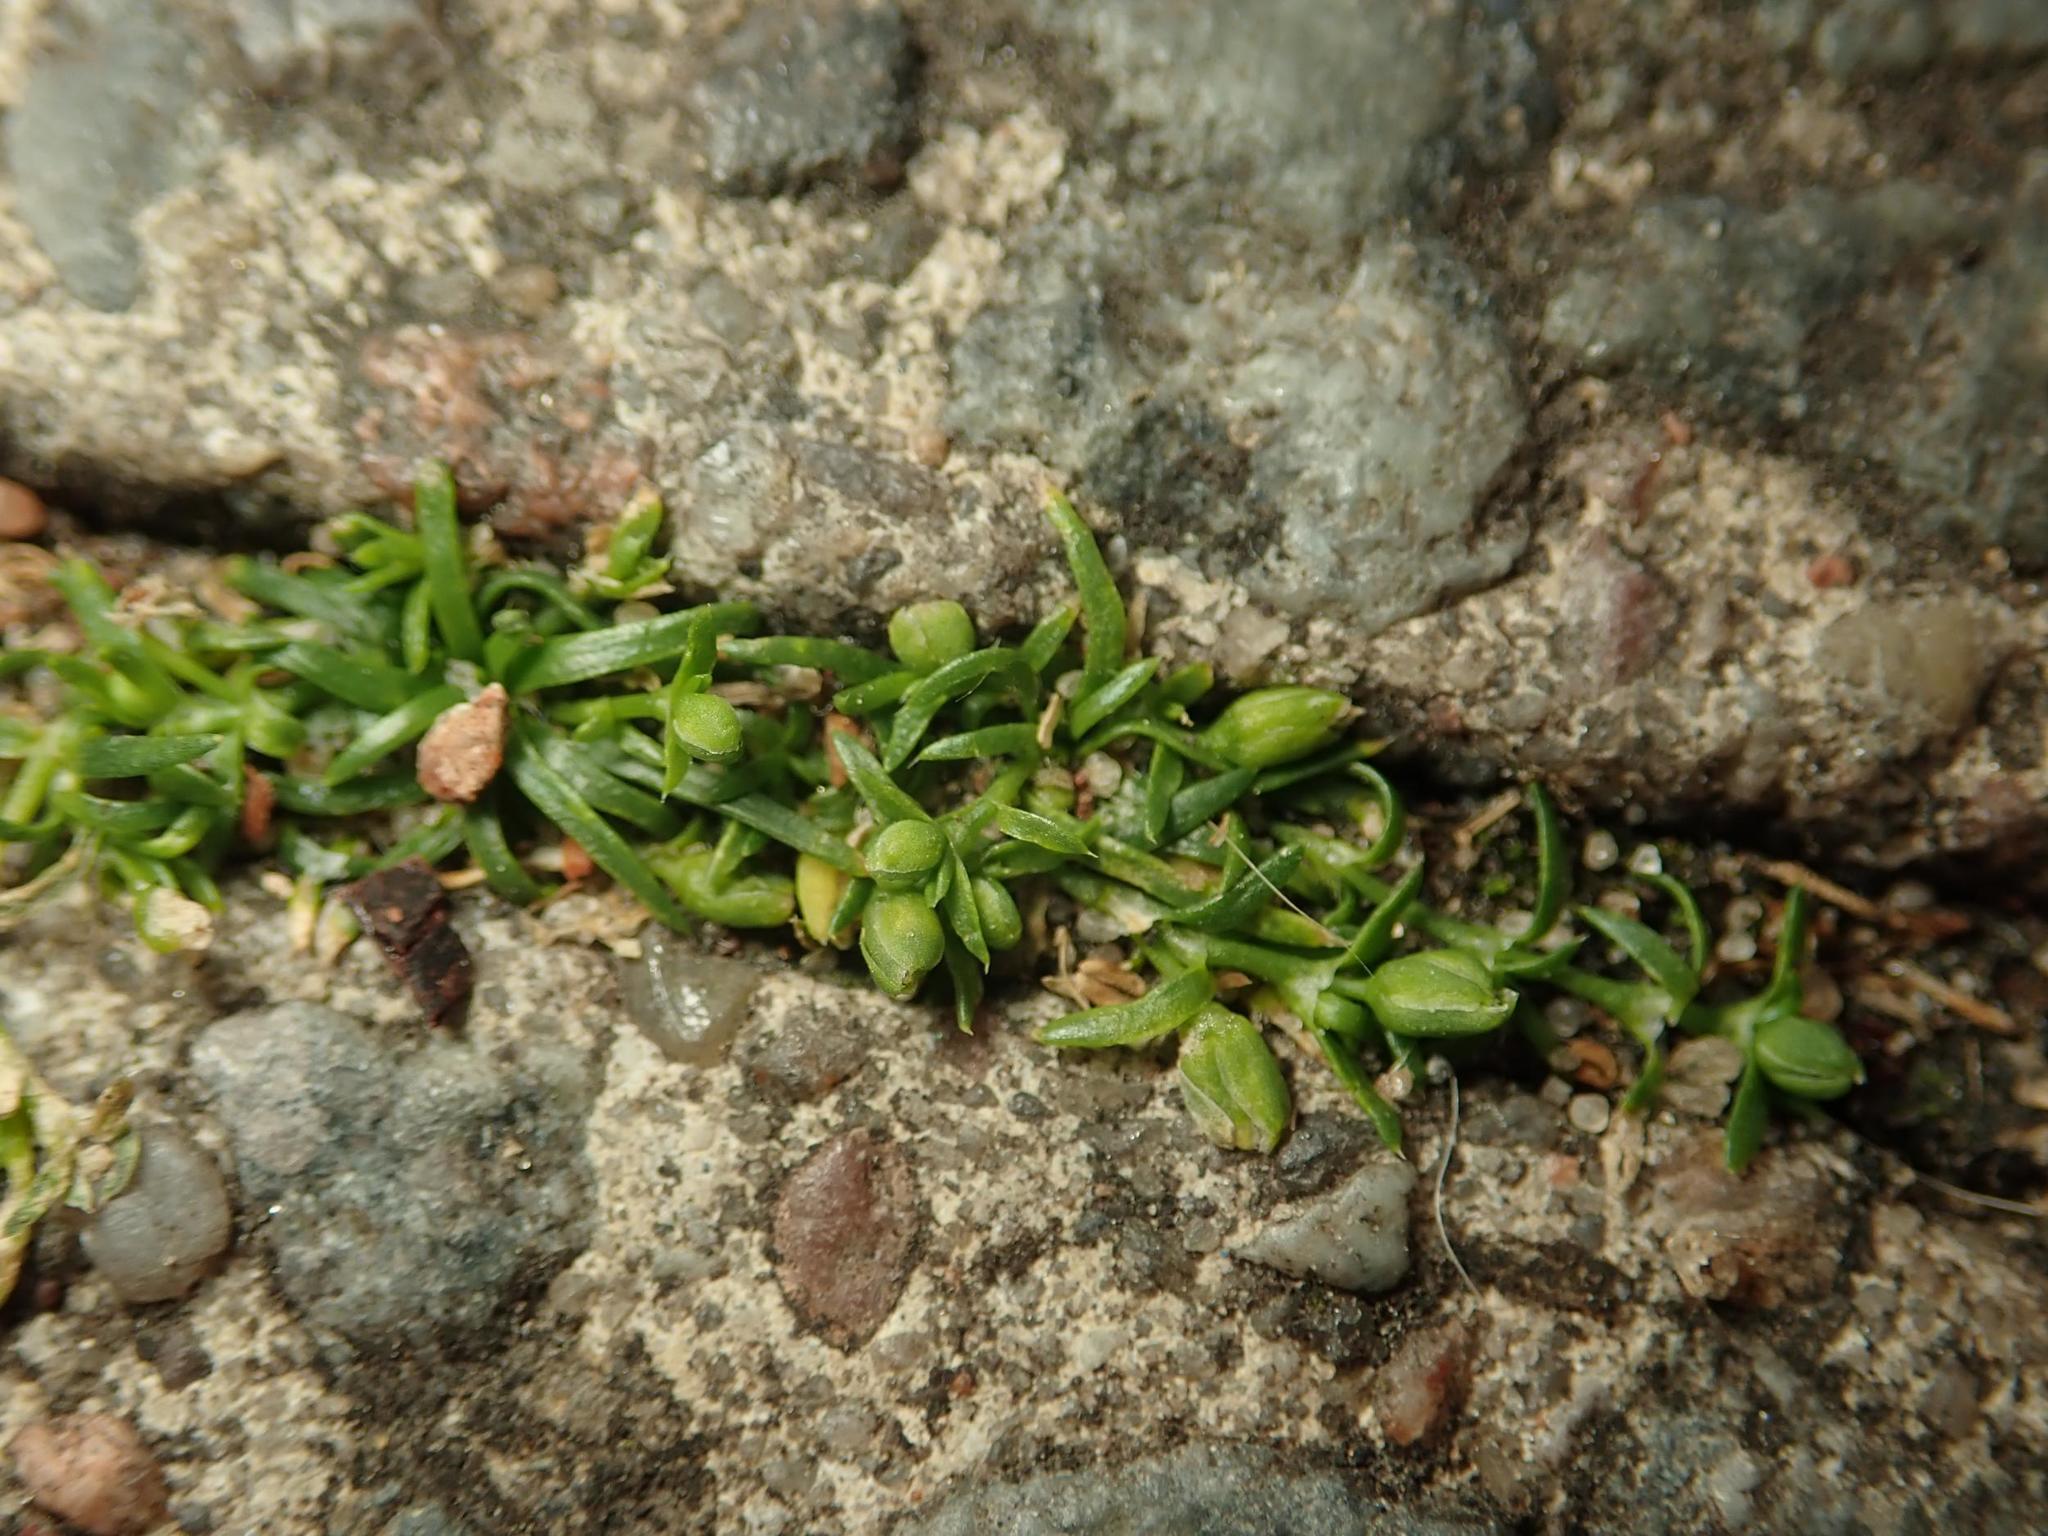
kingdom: Plantae
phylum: Tracheophyta
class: Magnoliopsida
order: Caryophyllales
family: Caryophyllaceae
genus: Sagina
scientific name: Sagina procumbens
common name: Procumbent pearlwort
